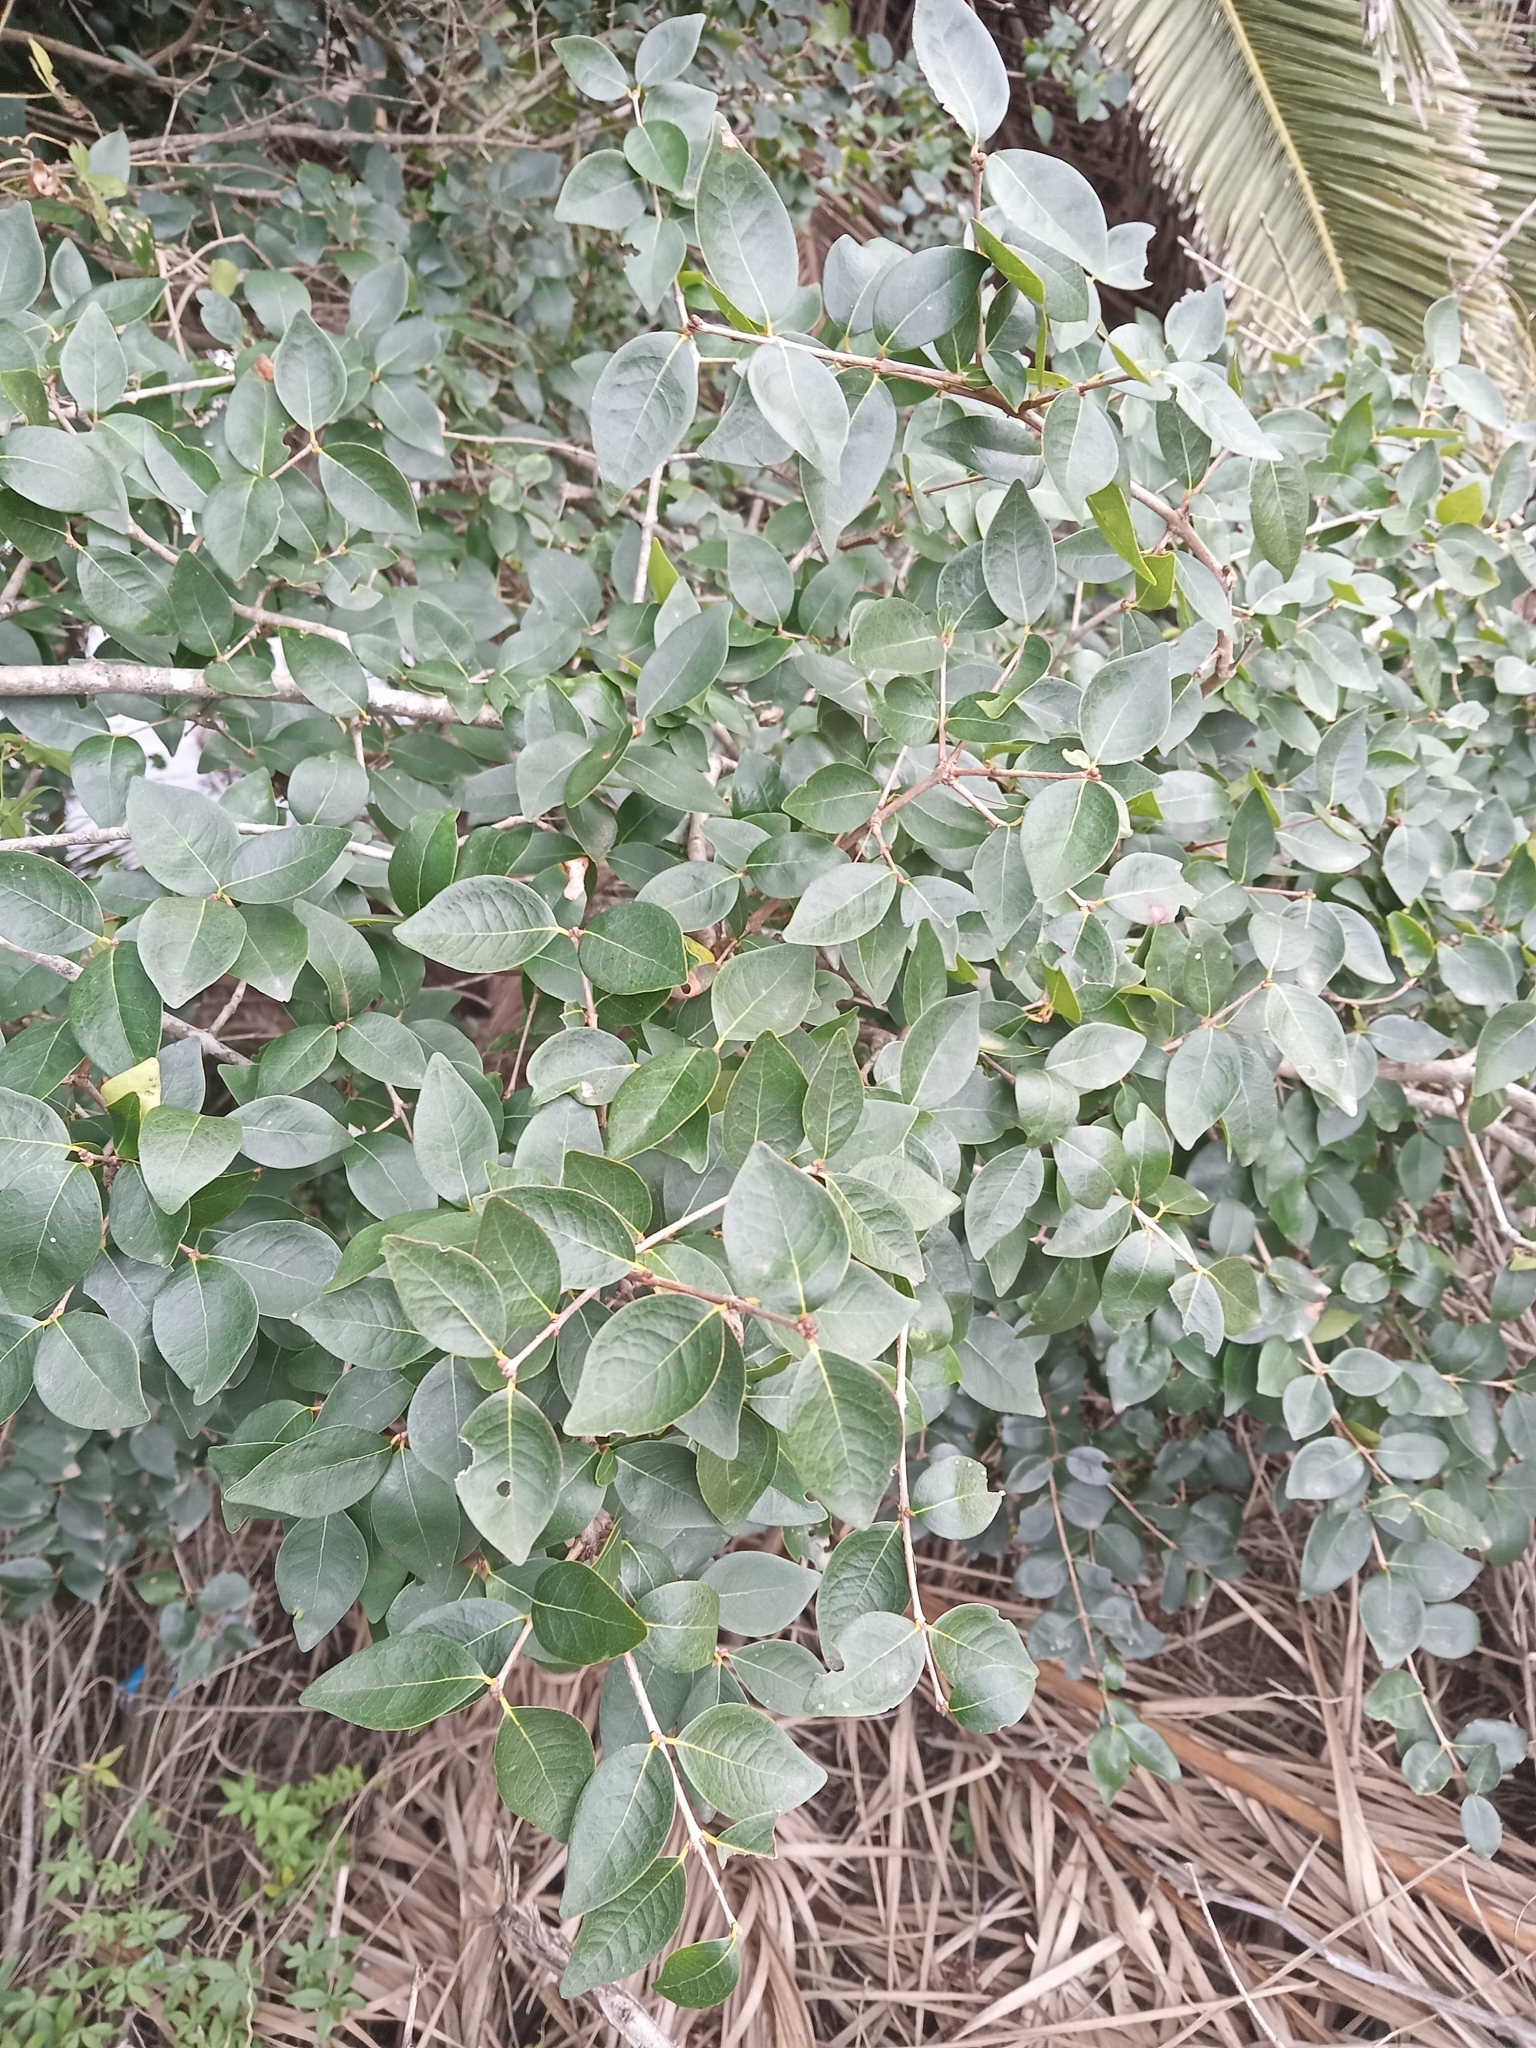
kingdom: Plantae
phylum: Tracheophyta
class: Magnoliopsida
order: Myrtales
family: Myrtaceae
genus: Eugenia
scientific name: Eugenia uniflora
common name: Surinam cherry
